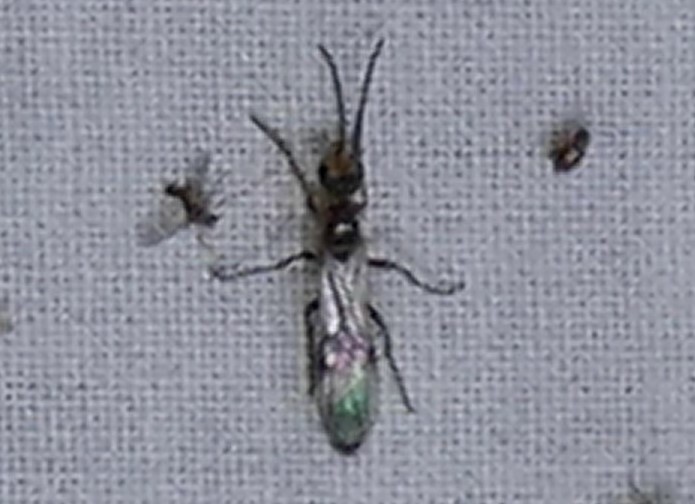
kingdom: Animalia
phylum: Arthropoda
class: Insecta
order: Hymenoptera
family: Formicidae
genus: Pseudomyrmex
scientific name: Pseudomyrmex gracilis
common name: Graceful twig ant
